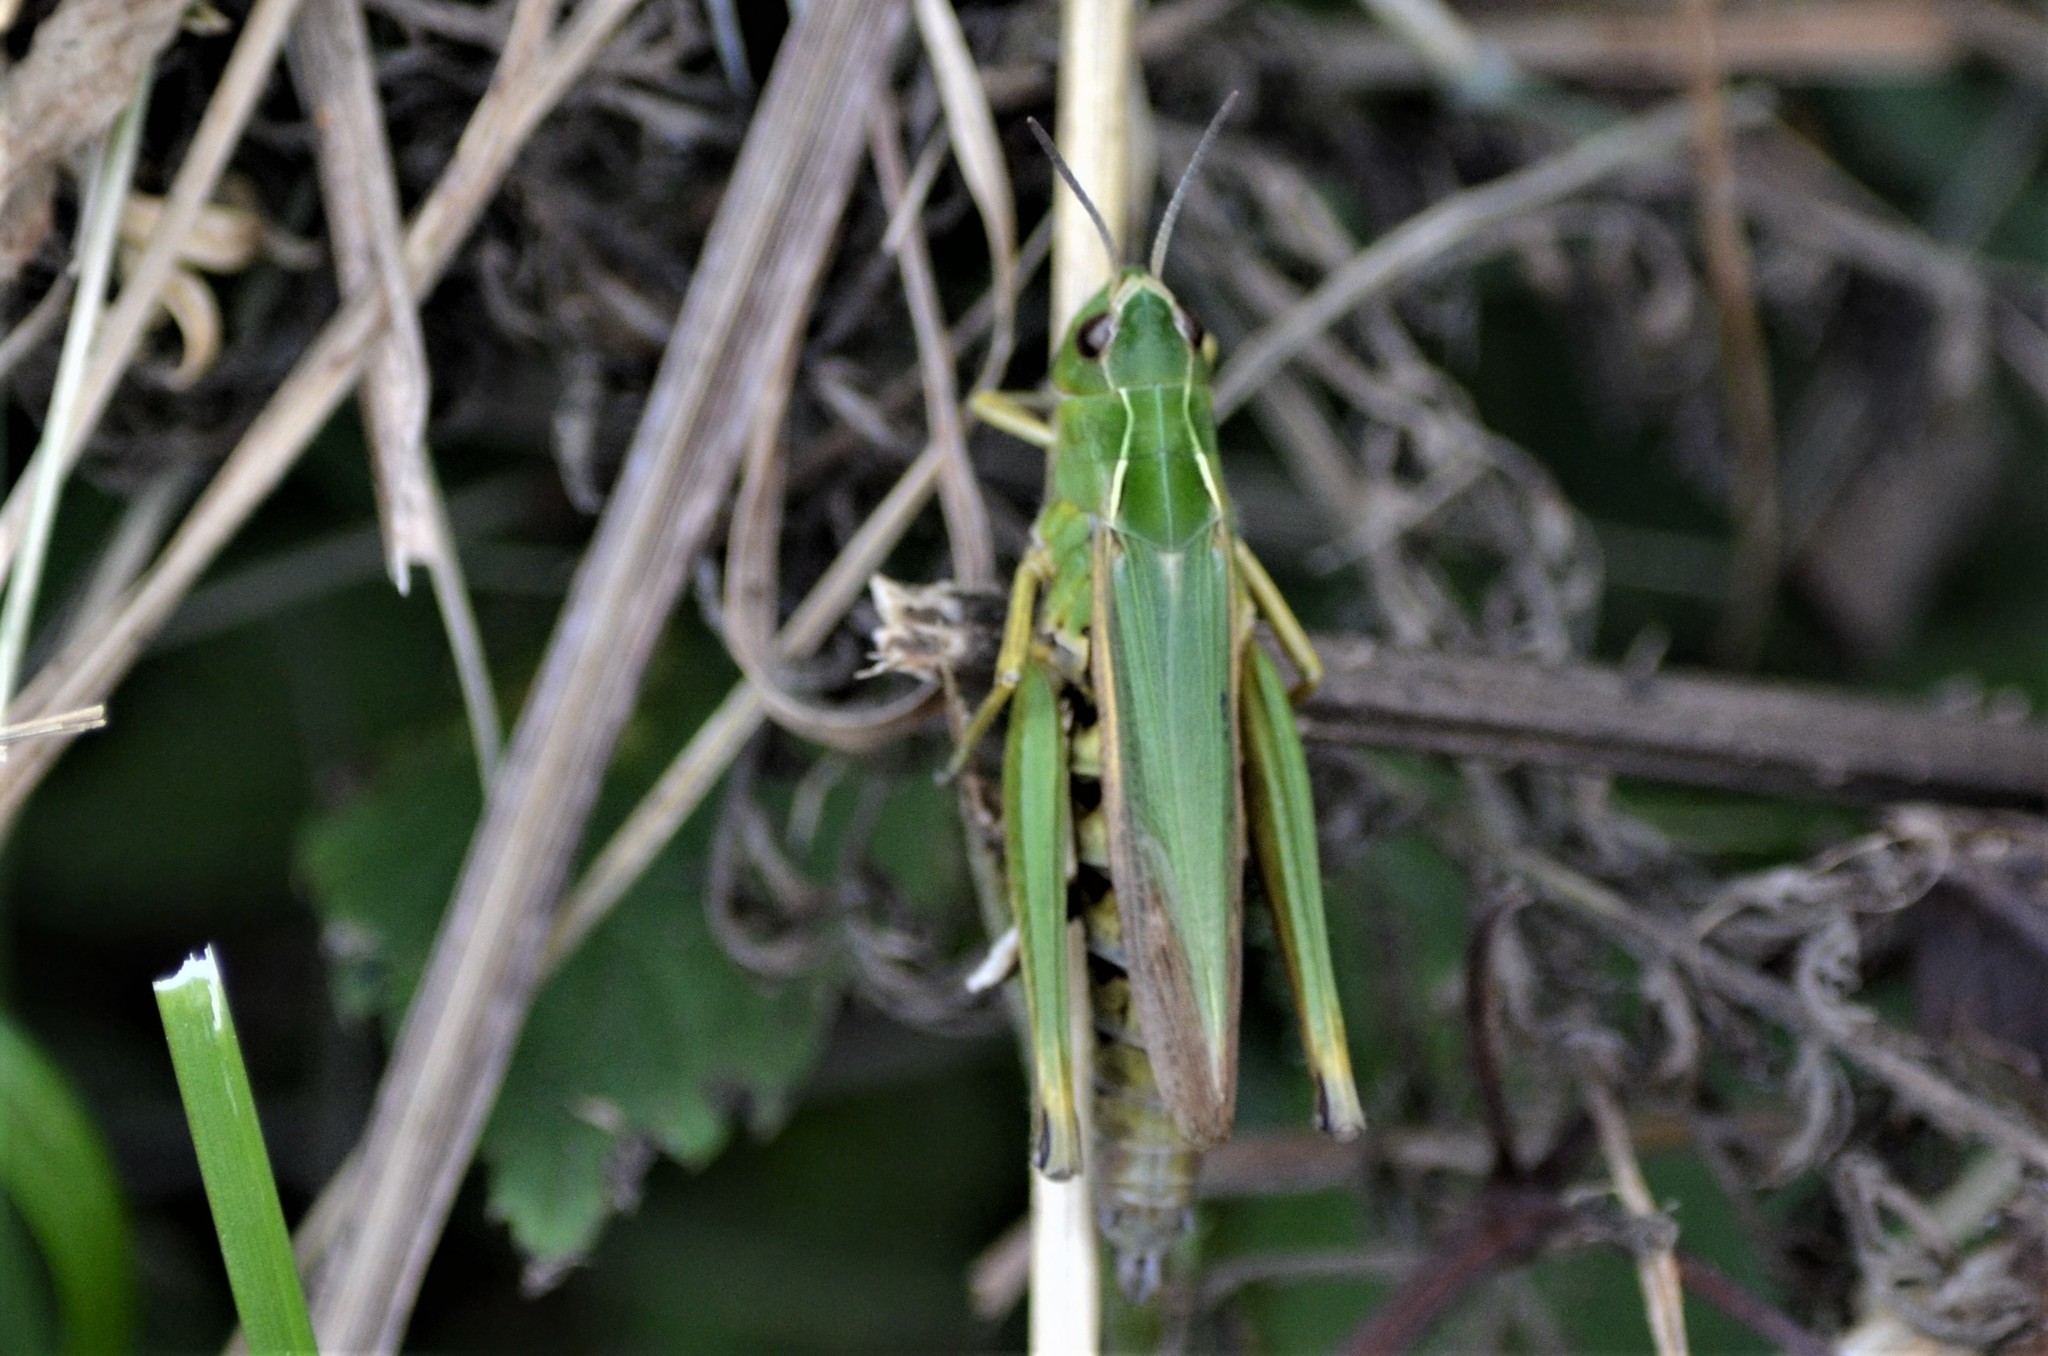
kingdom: Animalia
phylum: Arthropoda
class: Insecta
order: Orthoptera
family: Acrididae
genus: Omocestus
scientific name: Omocestus viridulus
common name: Common green grasshopper
